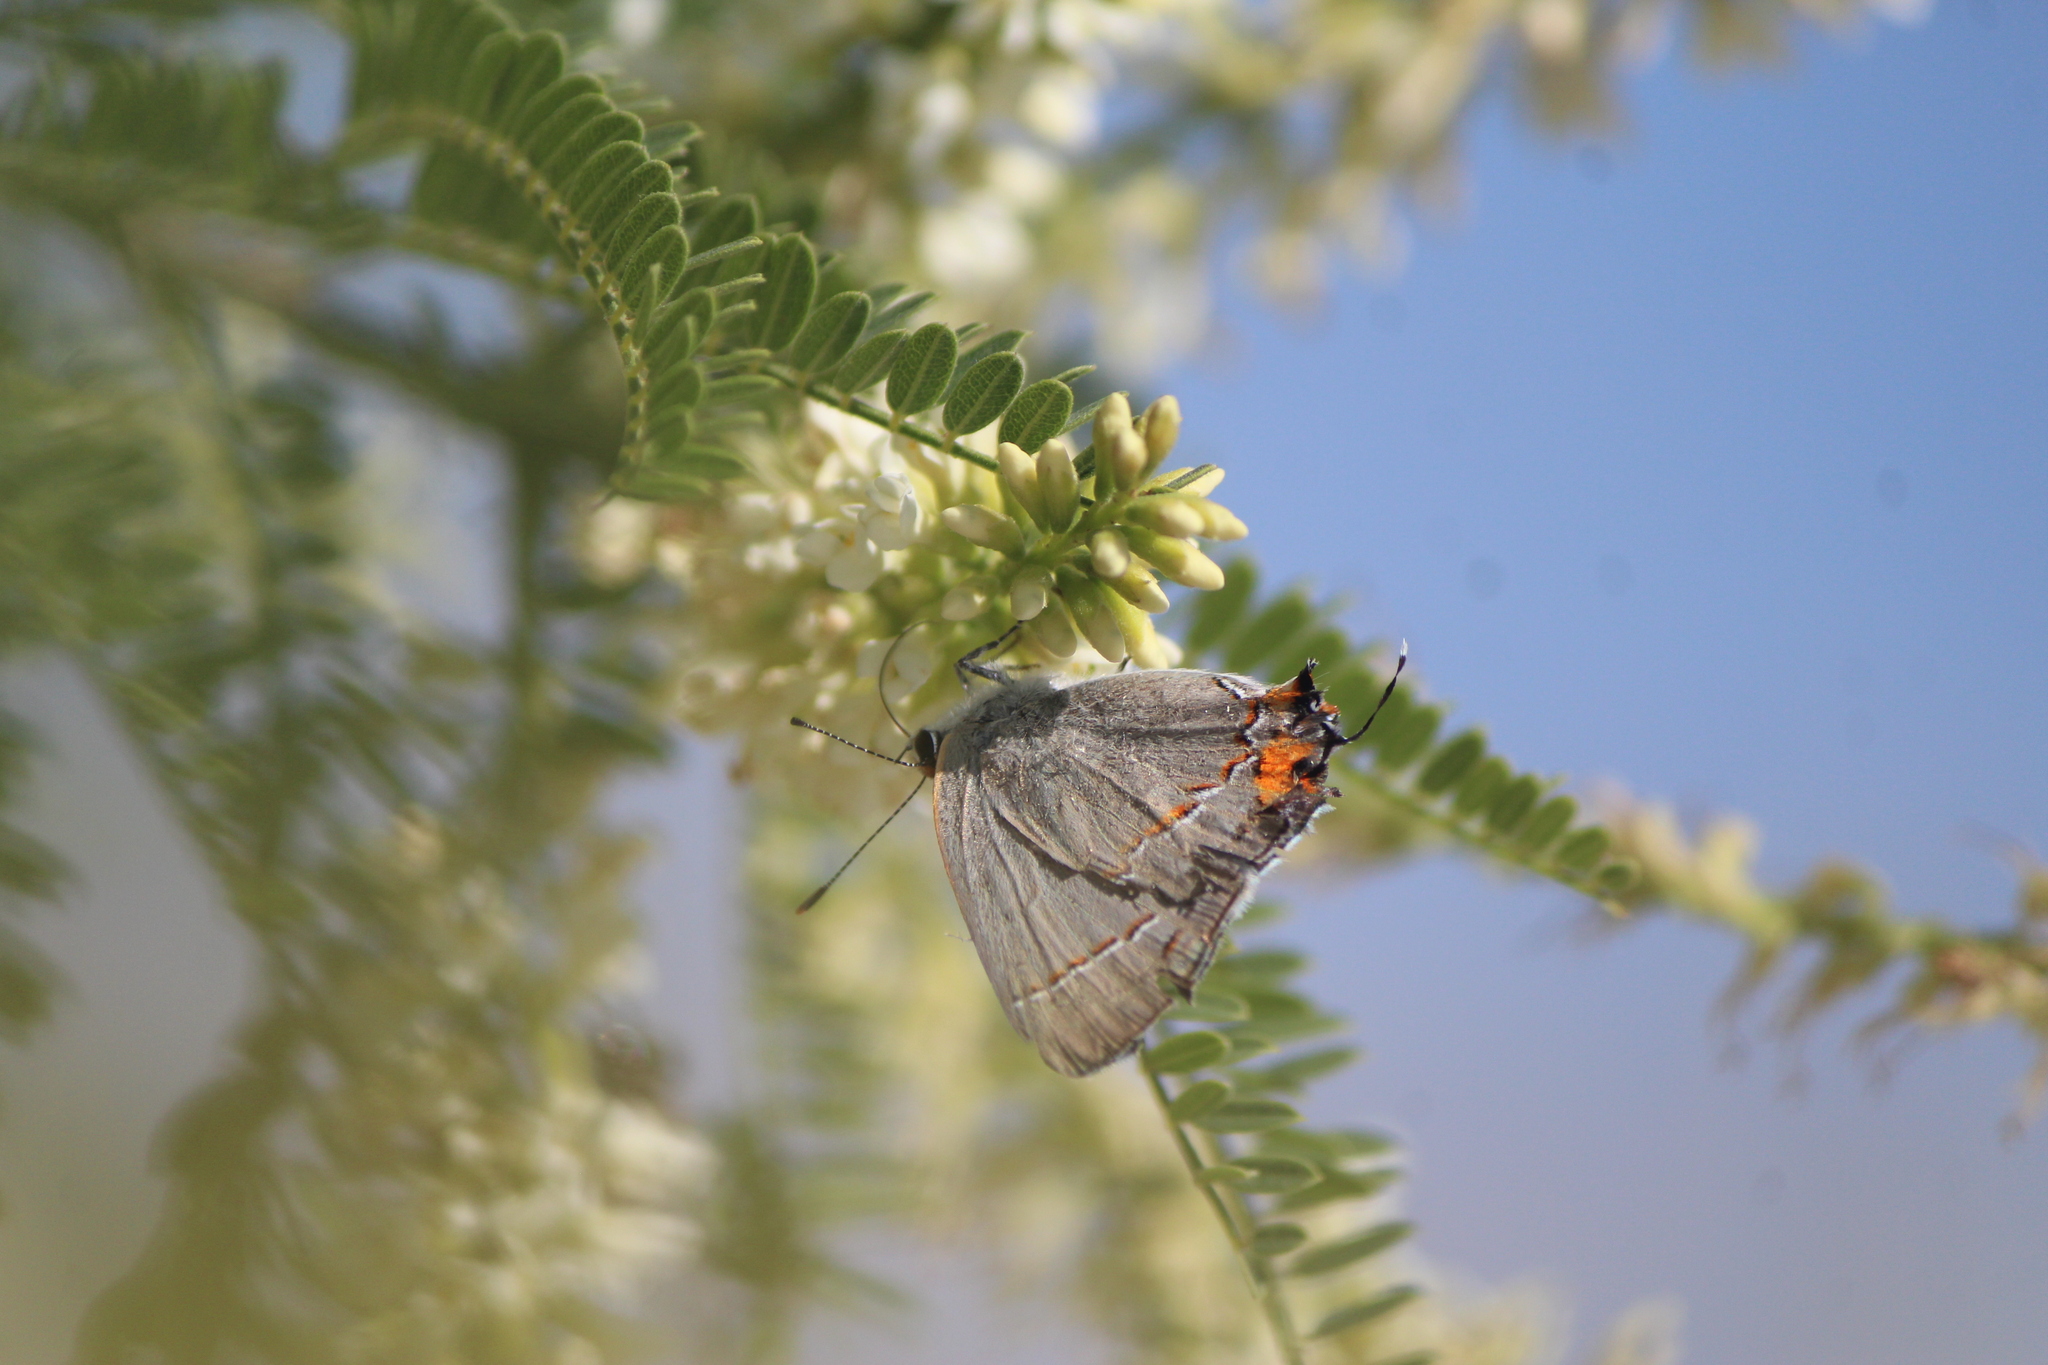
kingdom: Animalia
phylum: Arthropoda
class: Insecta
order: Lepidoptera
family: Lycaenidae
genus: Strymon
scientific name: Strymon melinus
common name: Gray hairstreak
